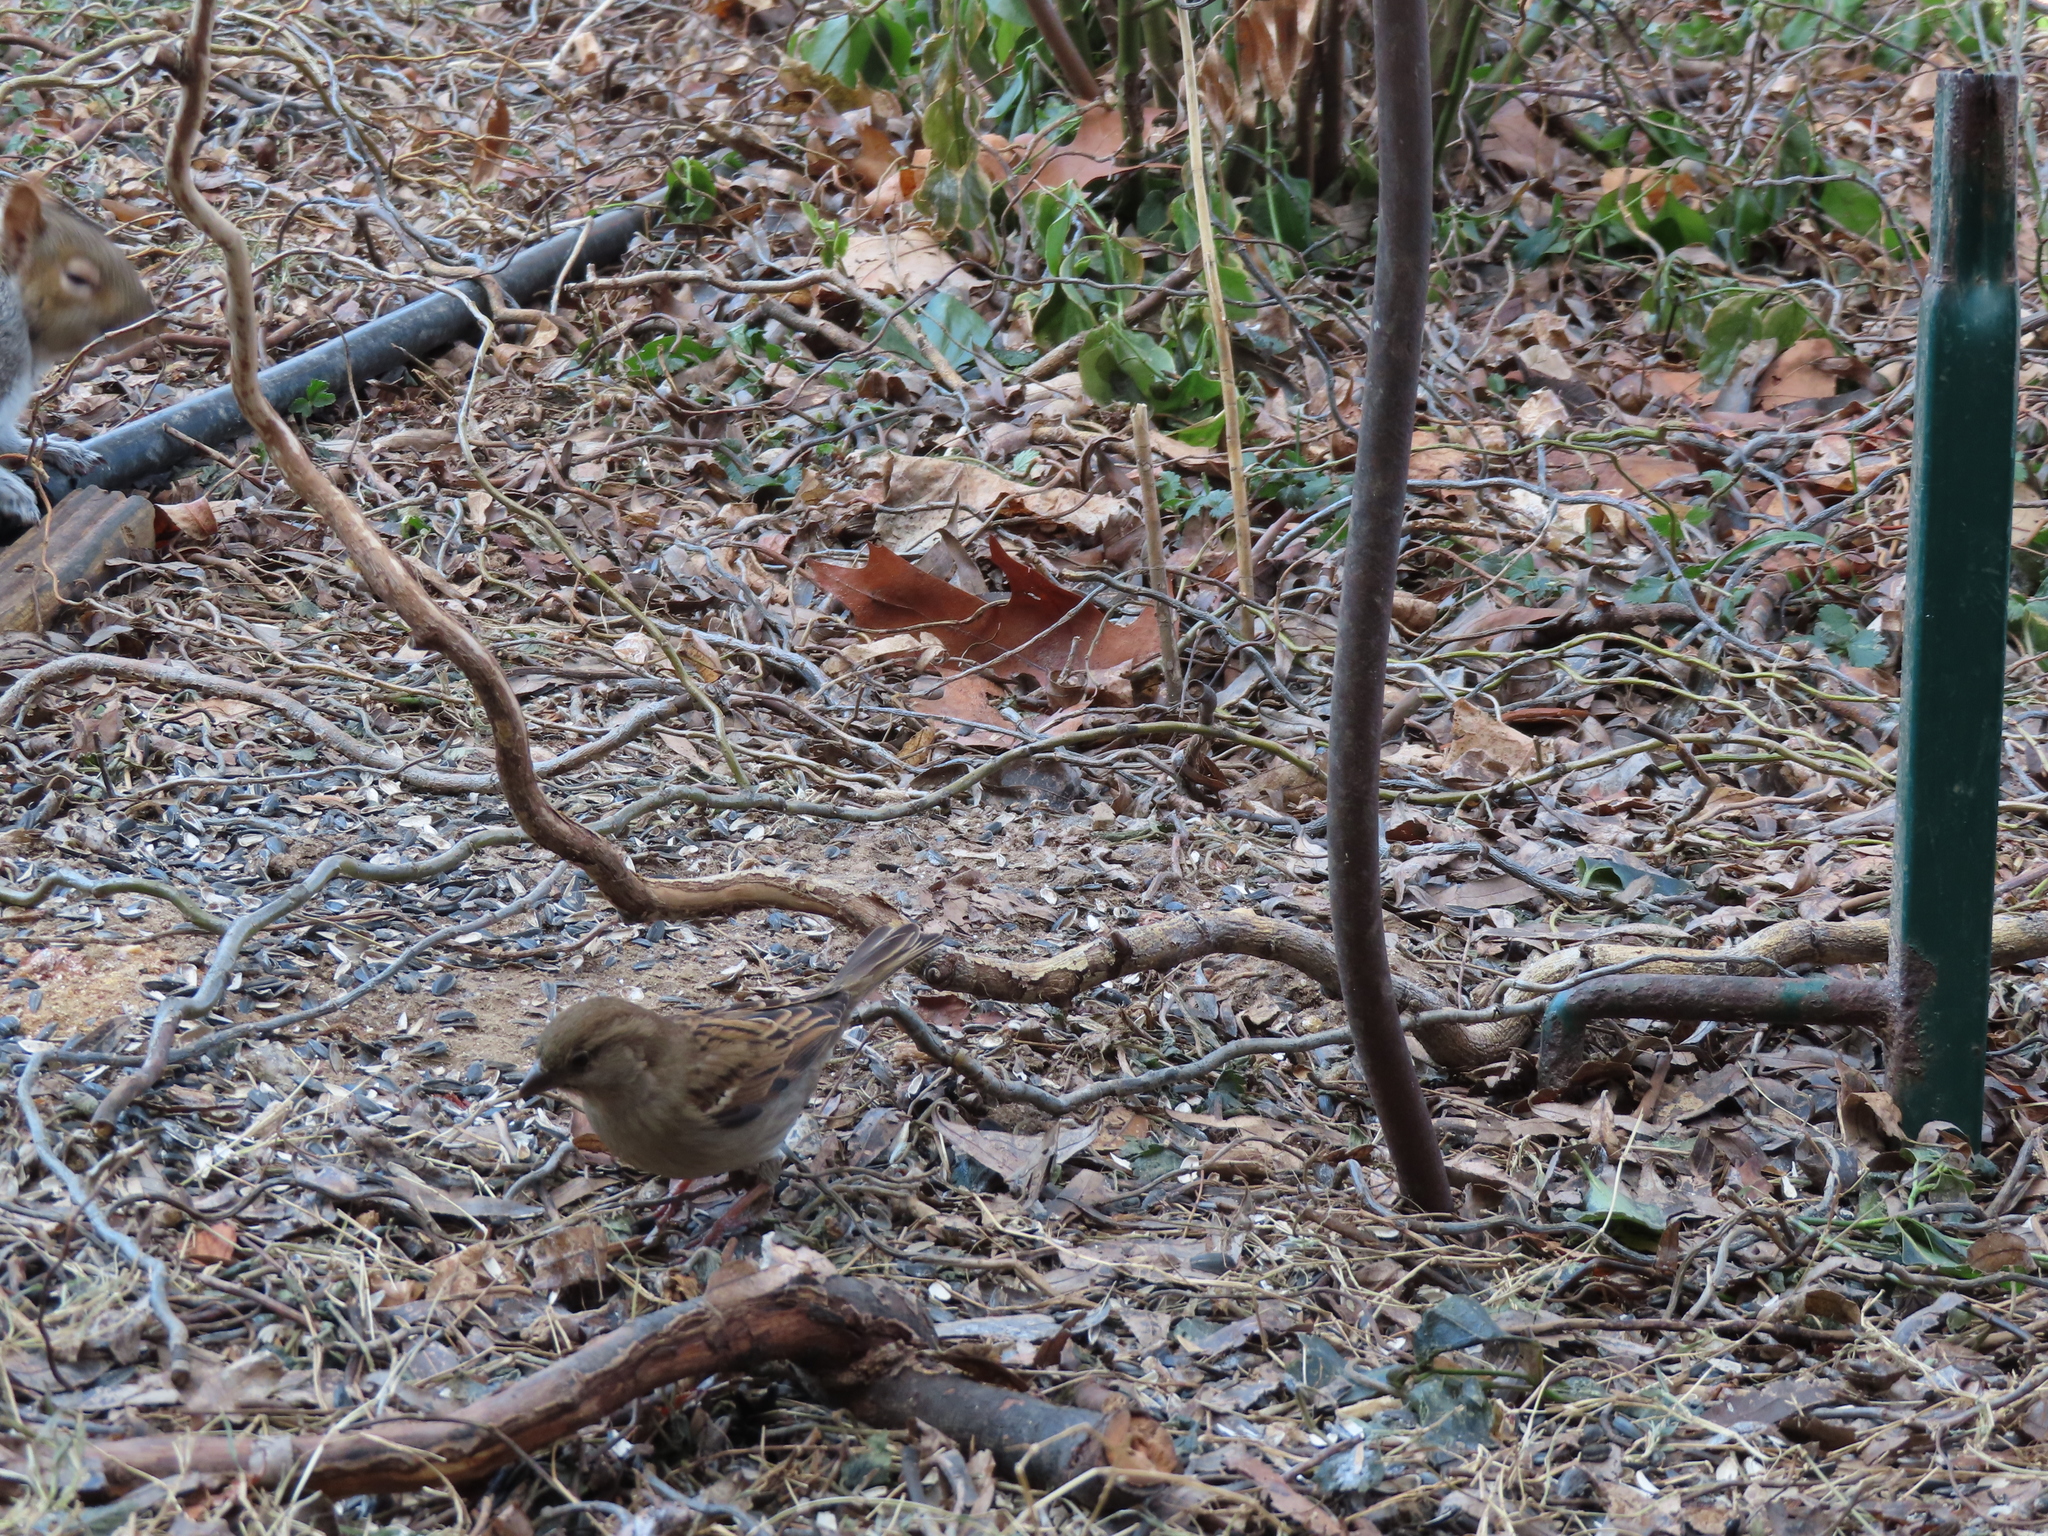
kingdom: Animalia
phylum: Chordata
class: Mammalia
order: Rodentia
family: Sciuridae
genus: Sciurus
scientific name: Sciurus carolinensis
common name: Eastern gray squirrel
